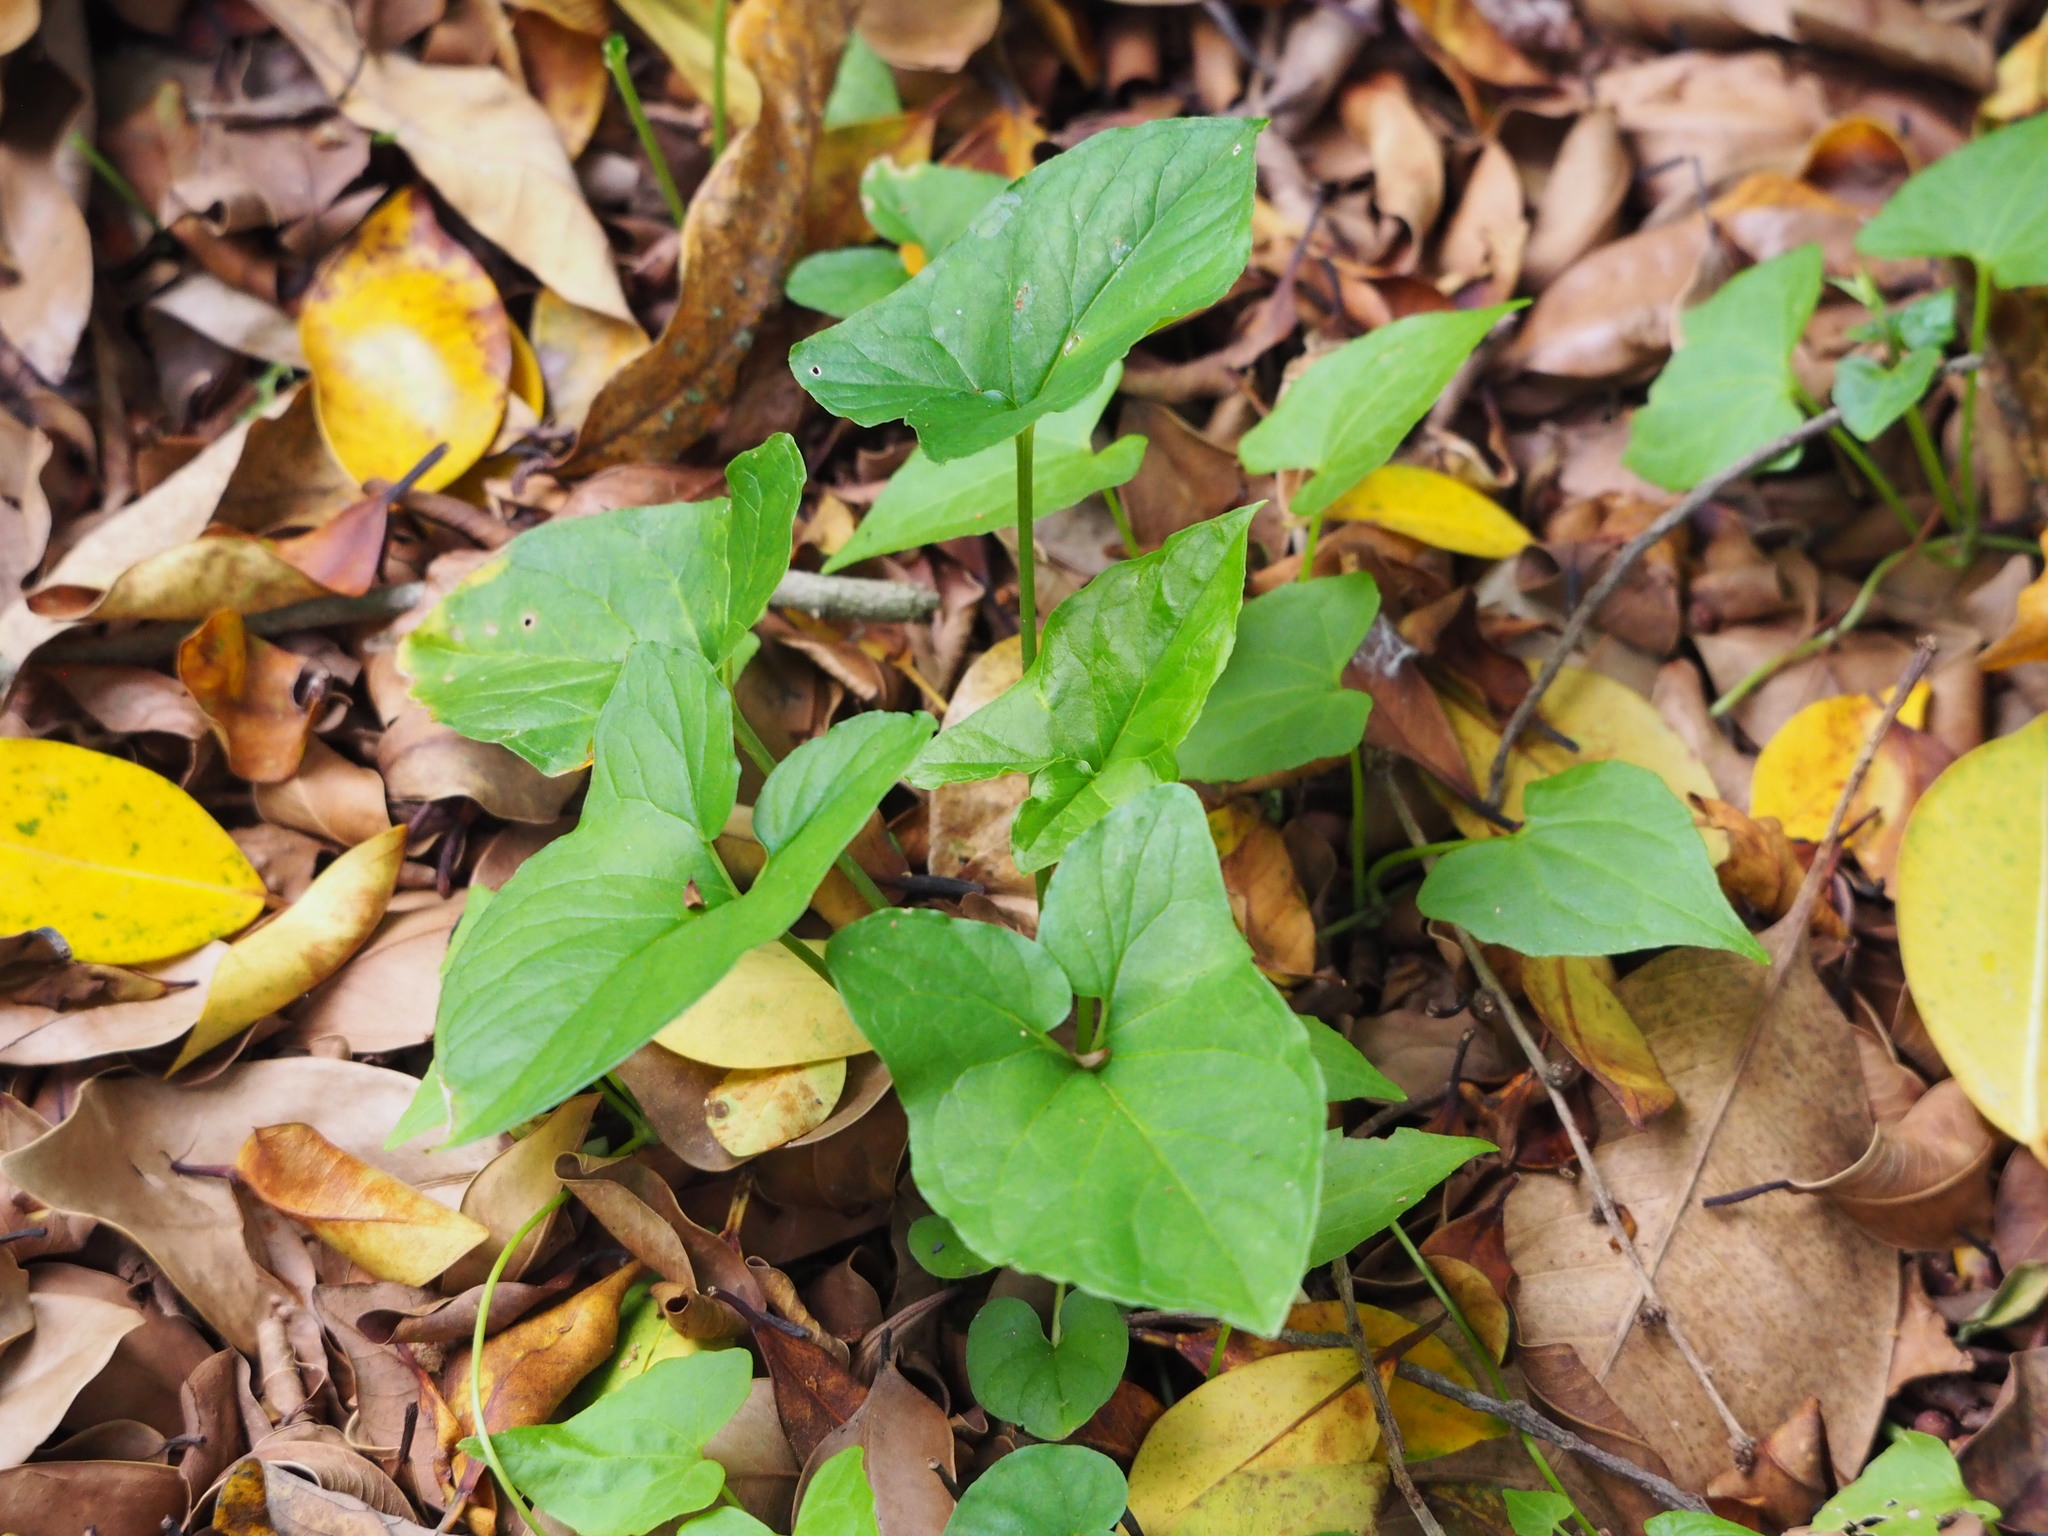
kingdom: Plantae
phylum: Tracheophyta
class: Liliopsida
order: Alismatales
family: Araceae
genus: Typhonium
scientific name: Typhonium blumei
